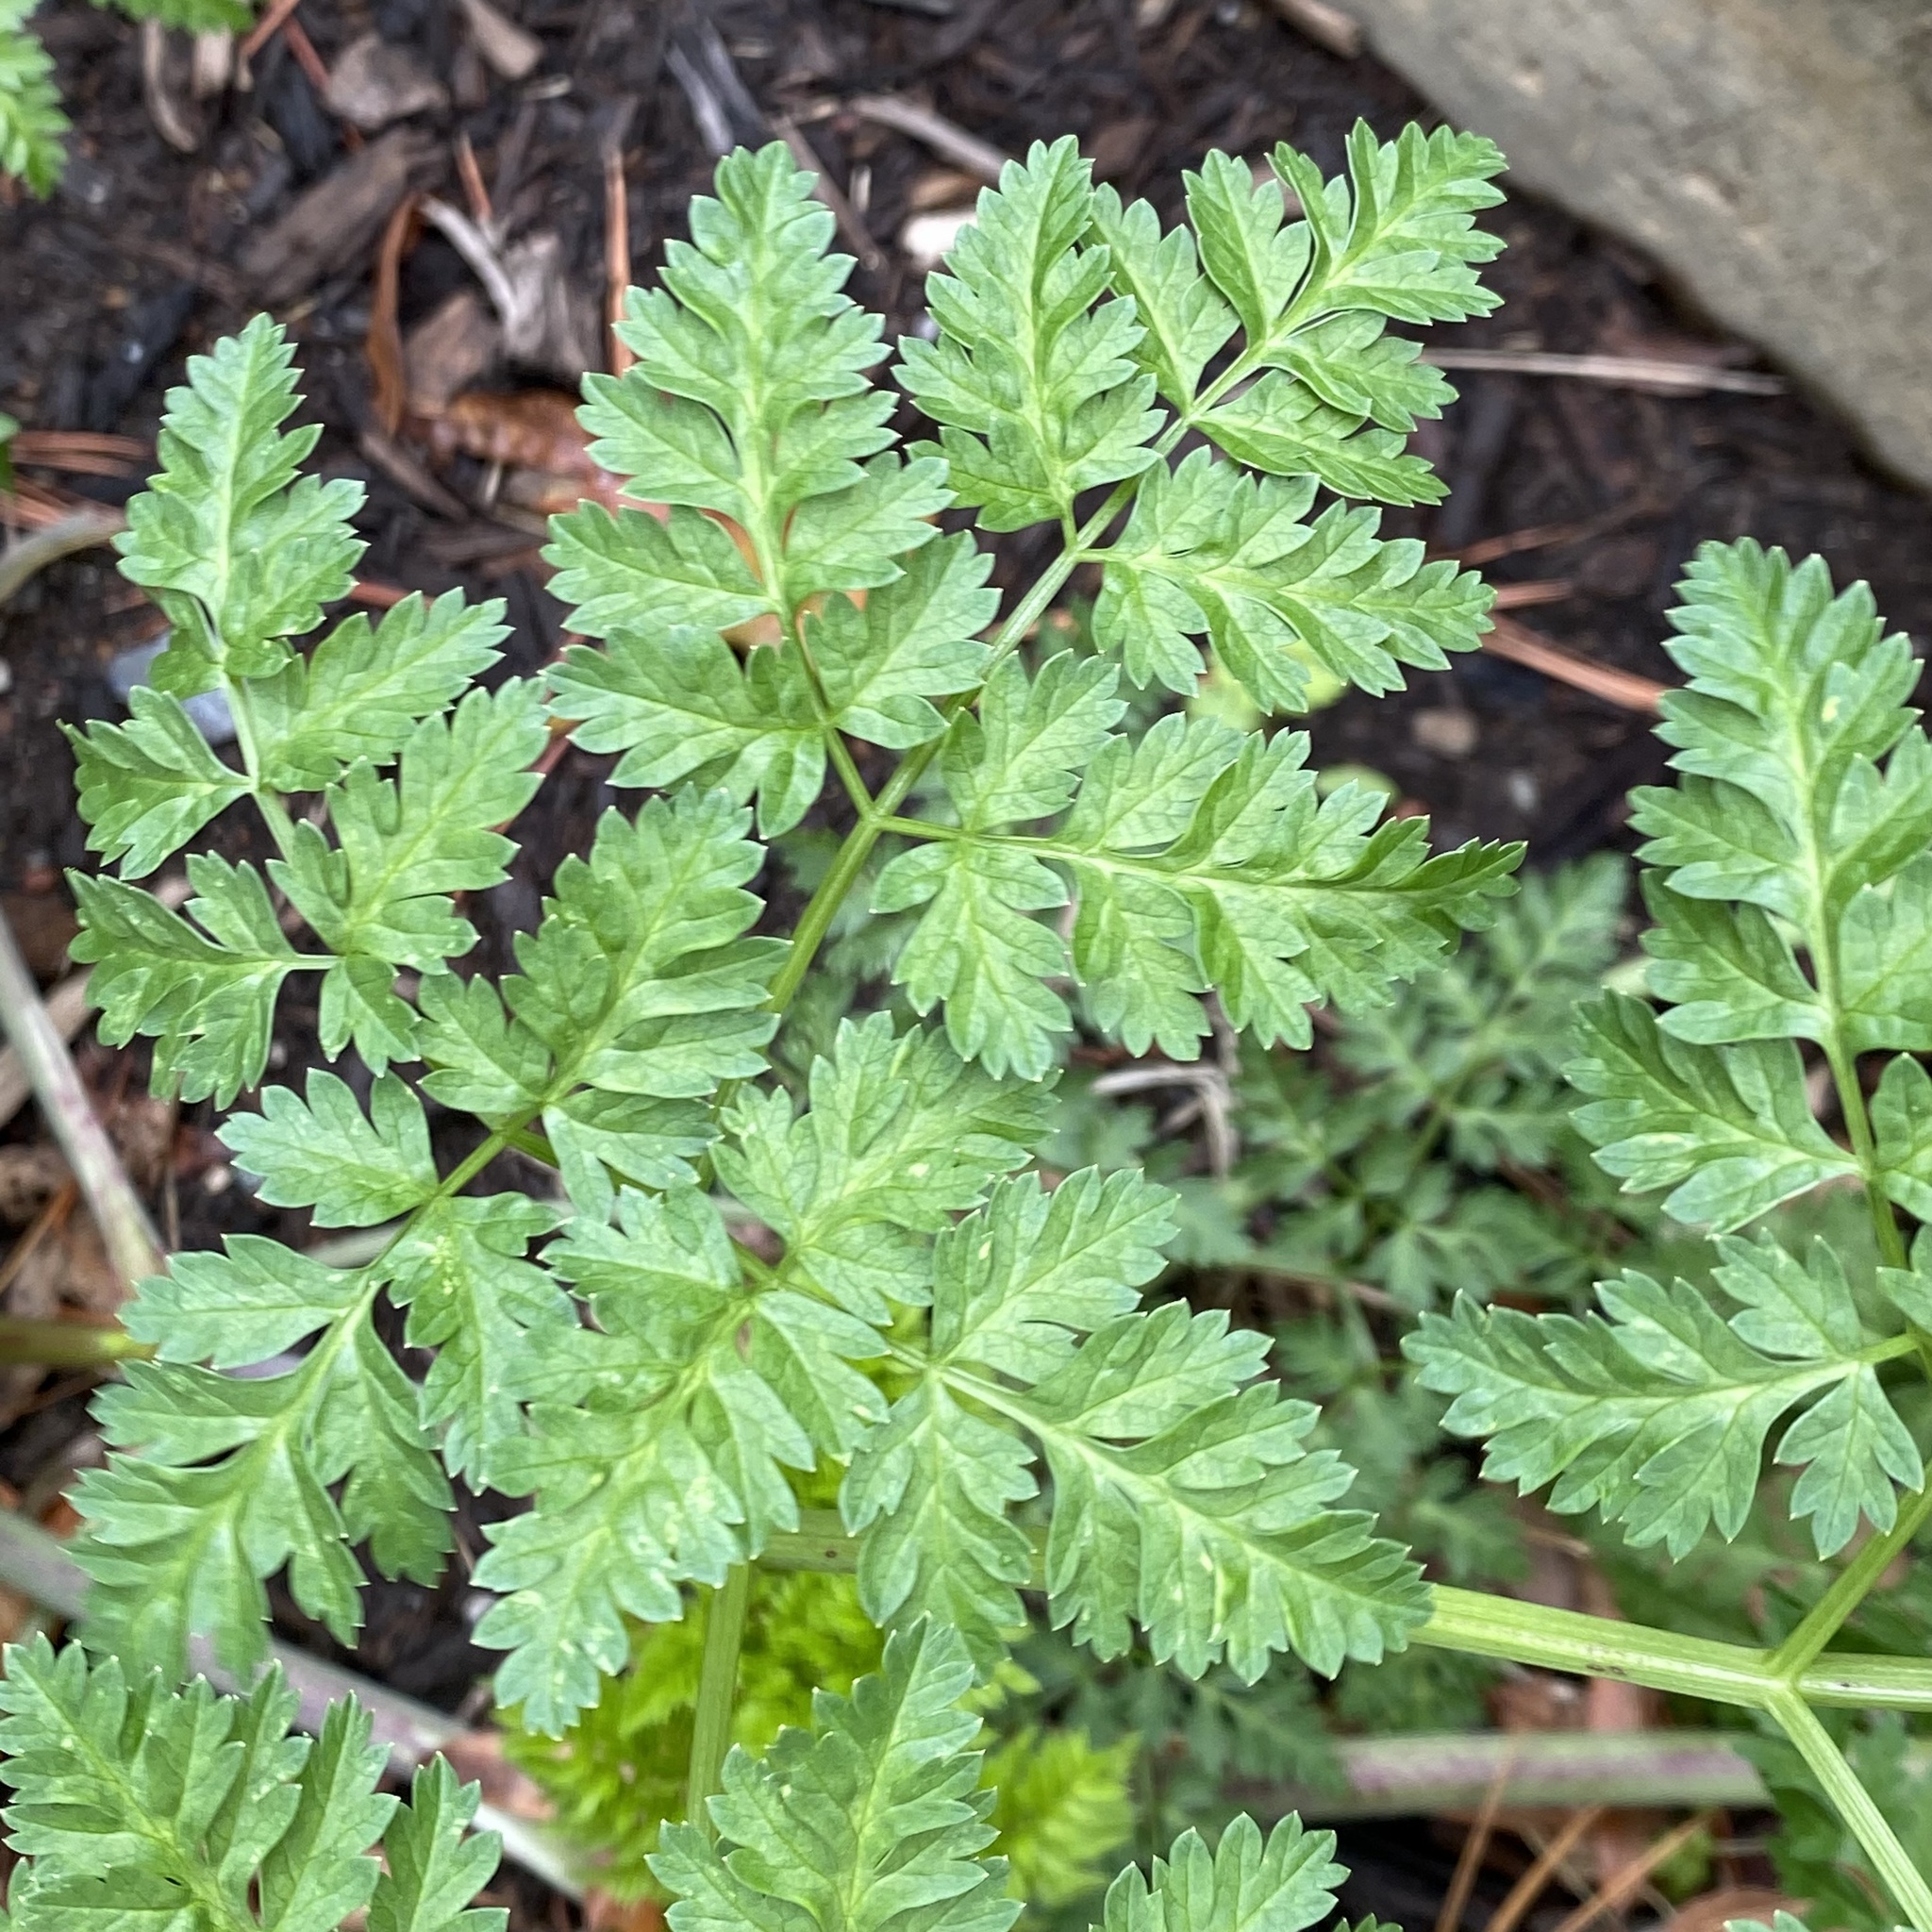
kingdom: Plantae
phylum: Tracheophyta
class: Magnoliopsida
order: Apiales
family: Apiaceae
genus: Conium
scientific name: Conium maculatum
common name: Hemlock
